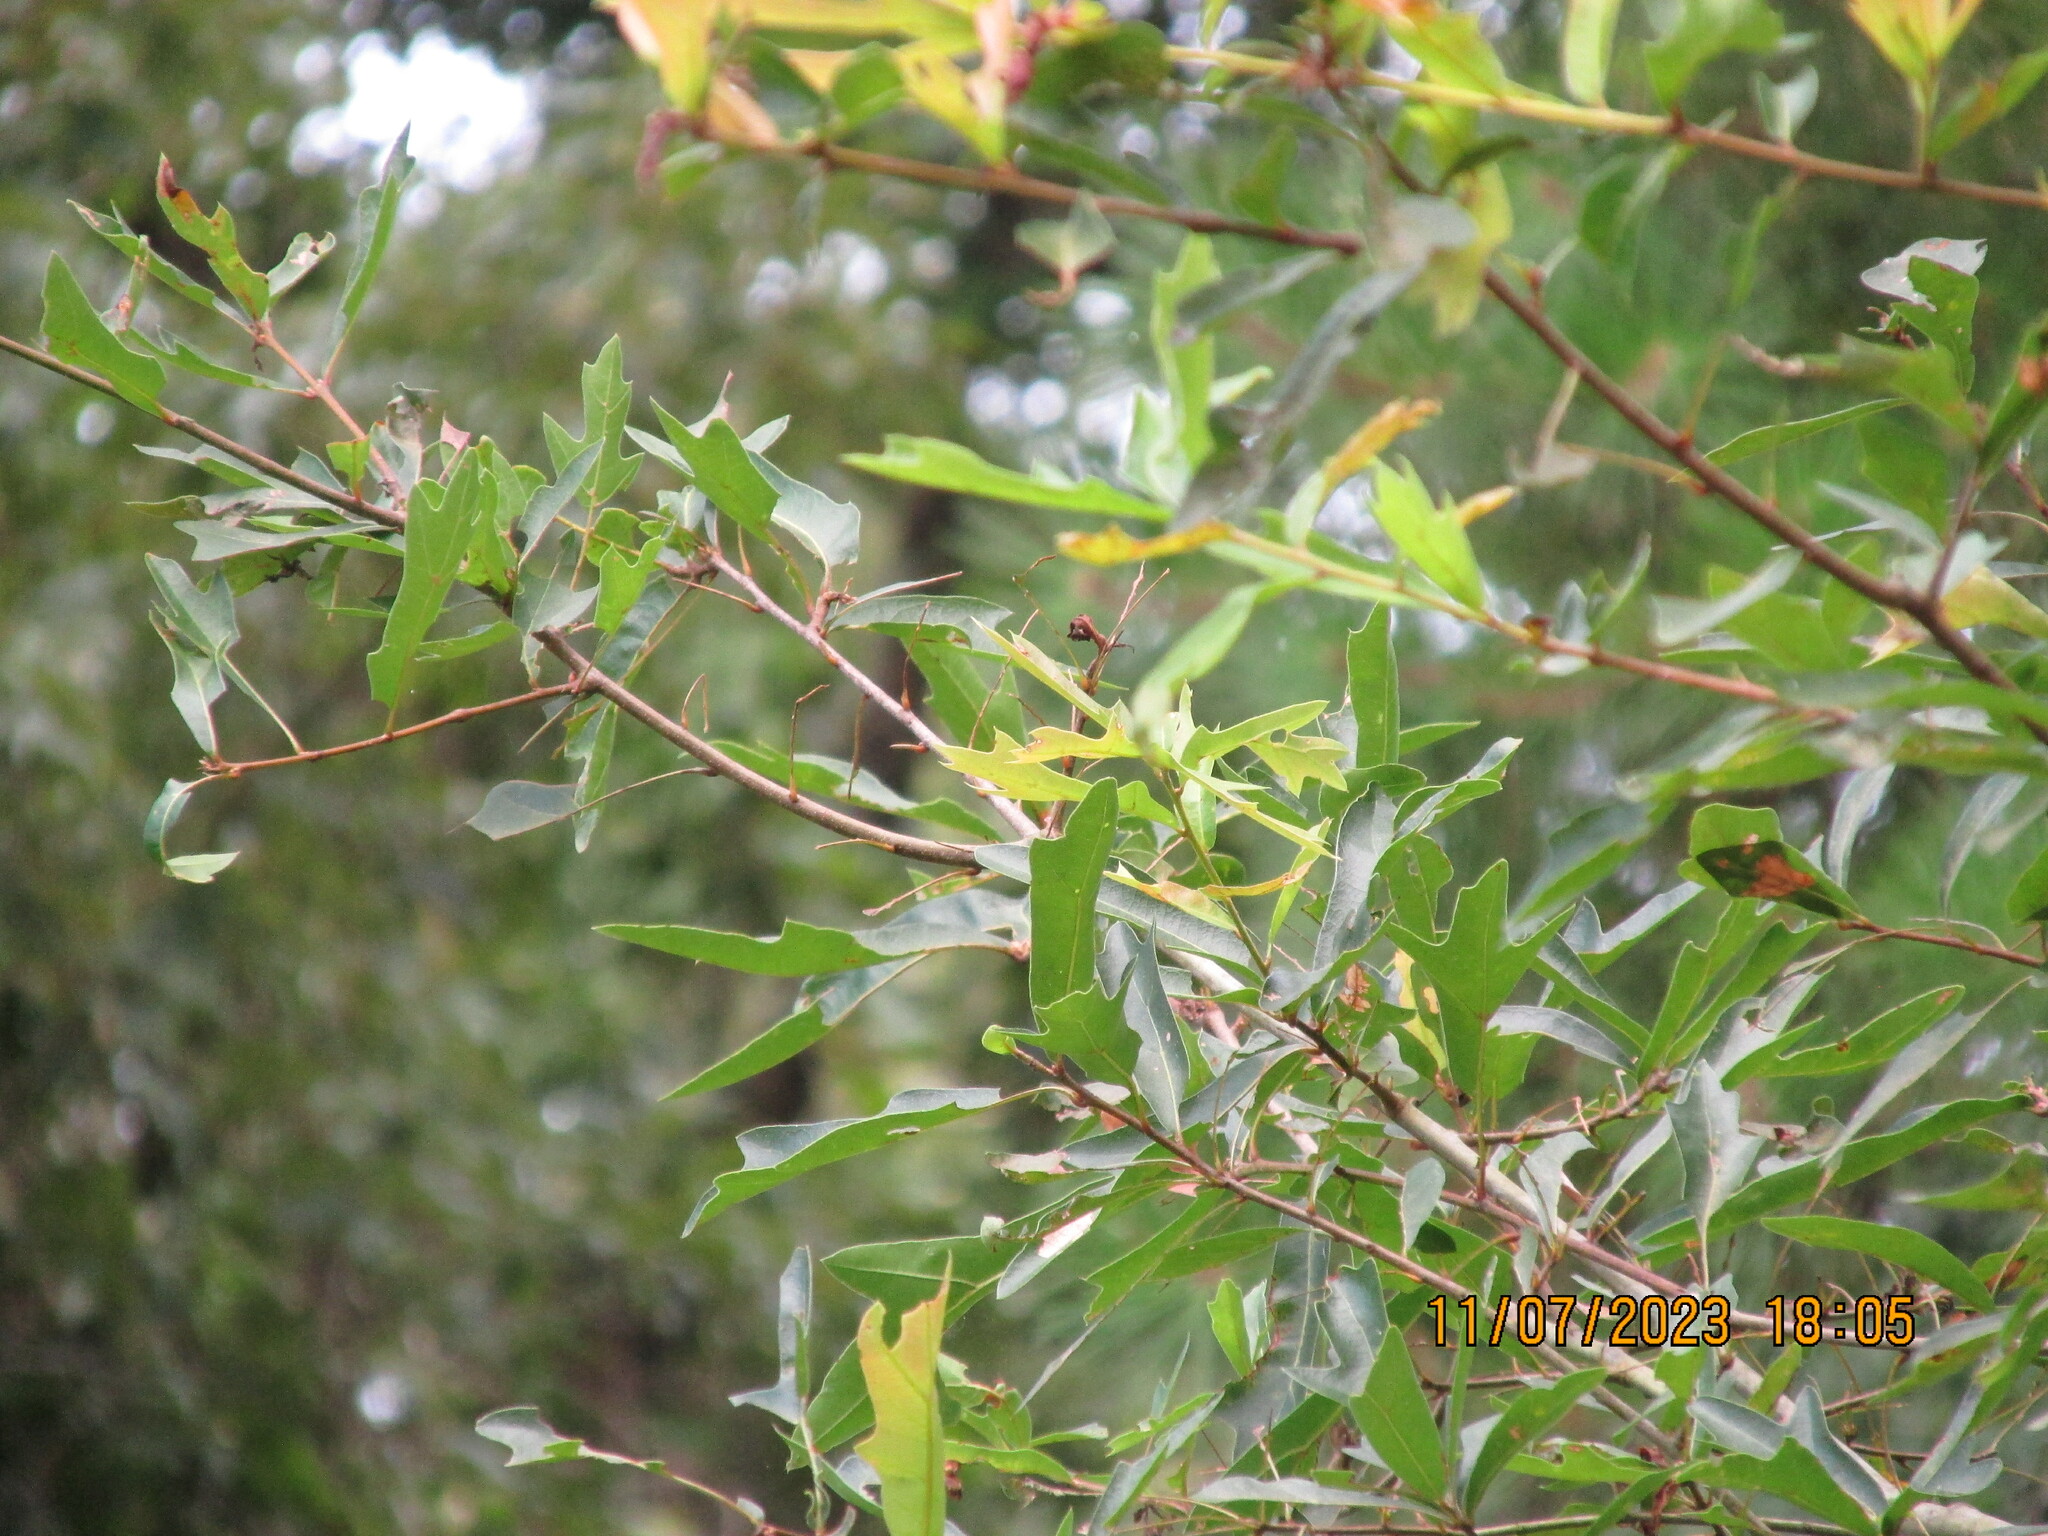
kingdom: Plantae
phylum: Tracheophyta
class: Magnoliopsida
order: Fagales
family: Fagaceae
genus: Quercus
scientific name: Quercus nigra
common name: Water oak
